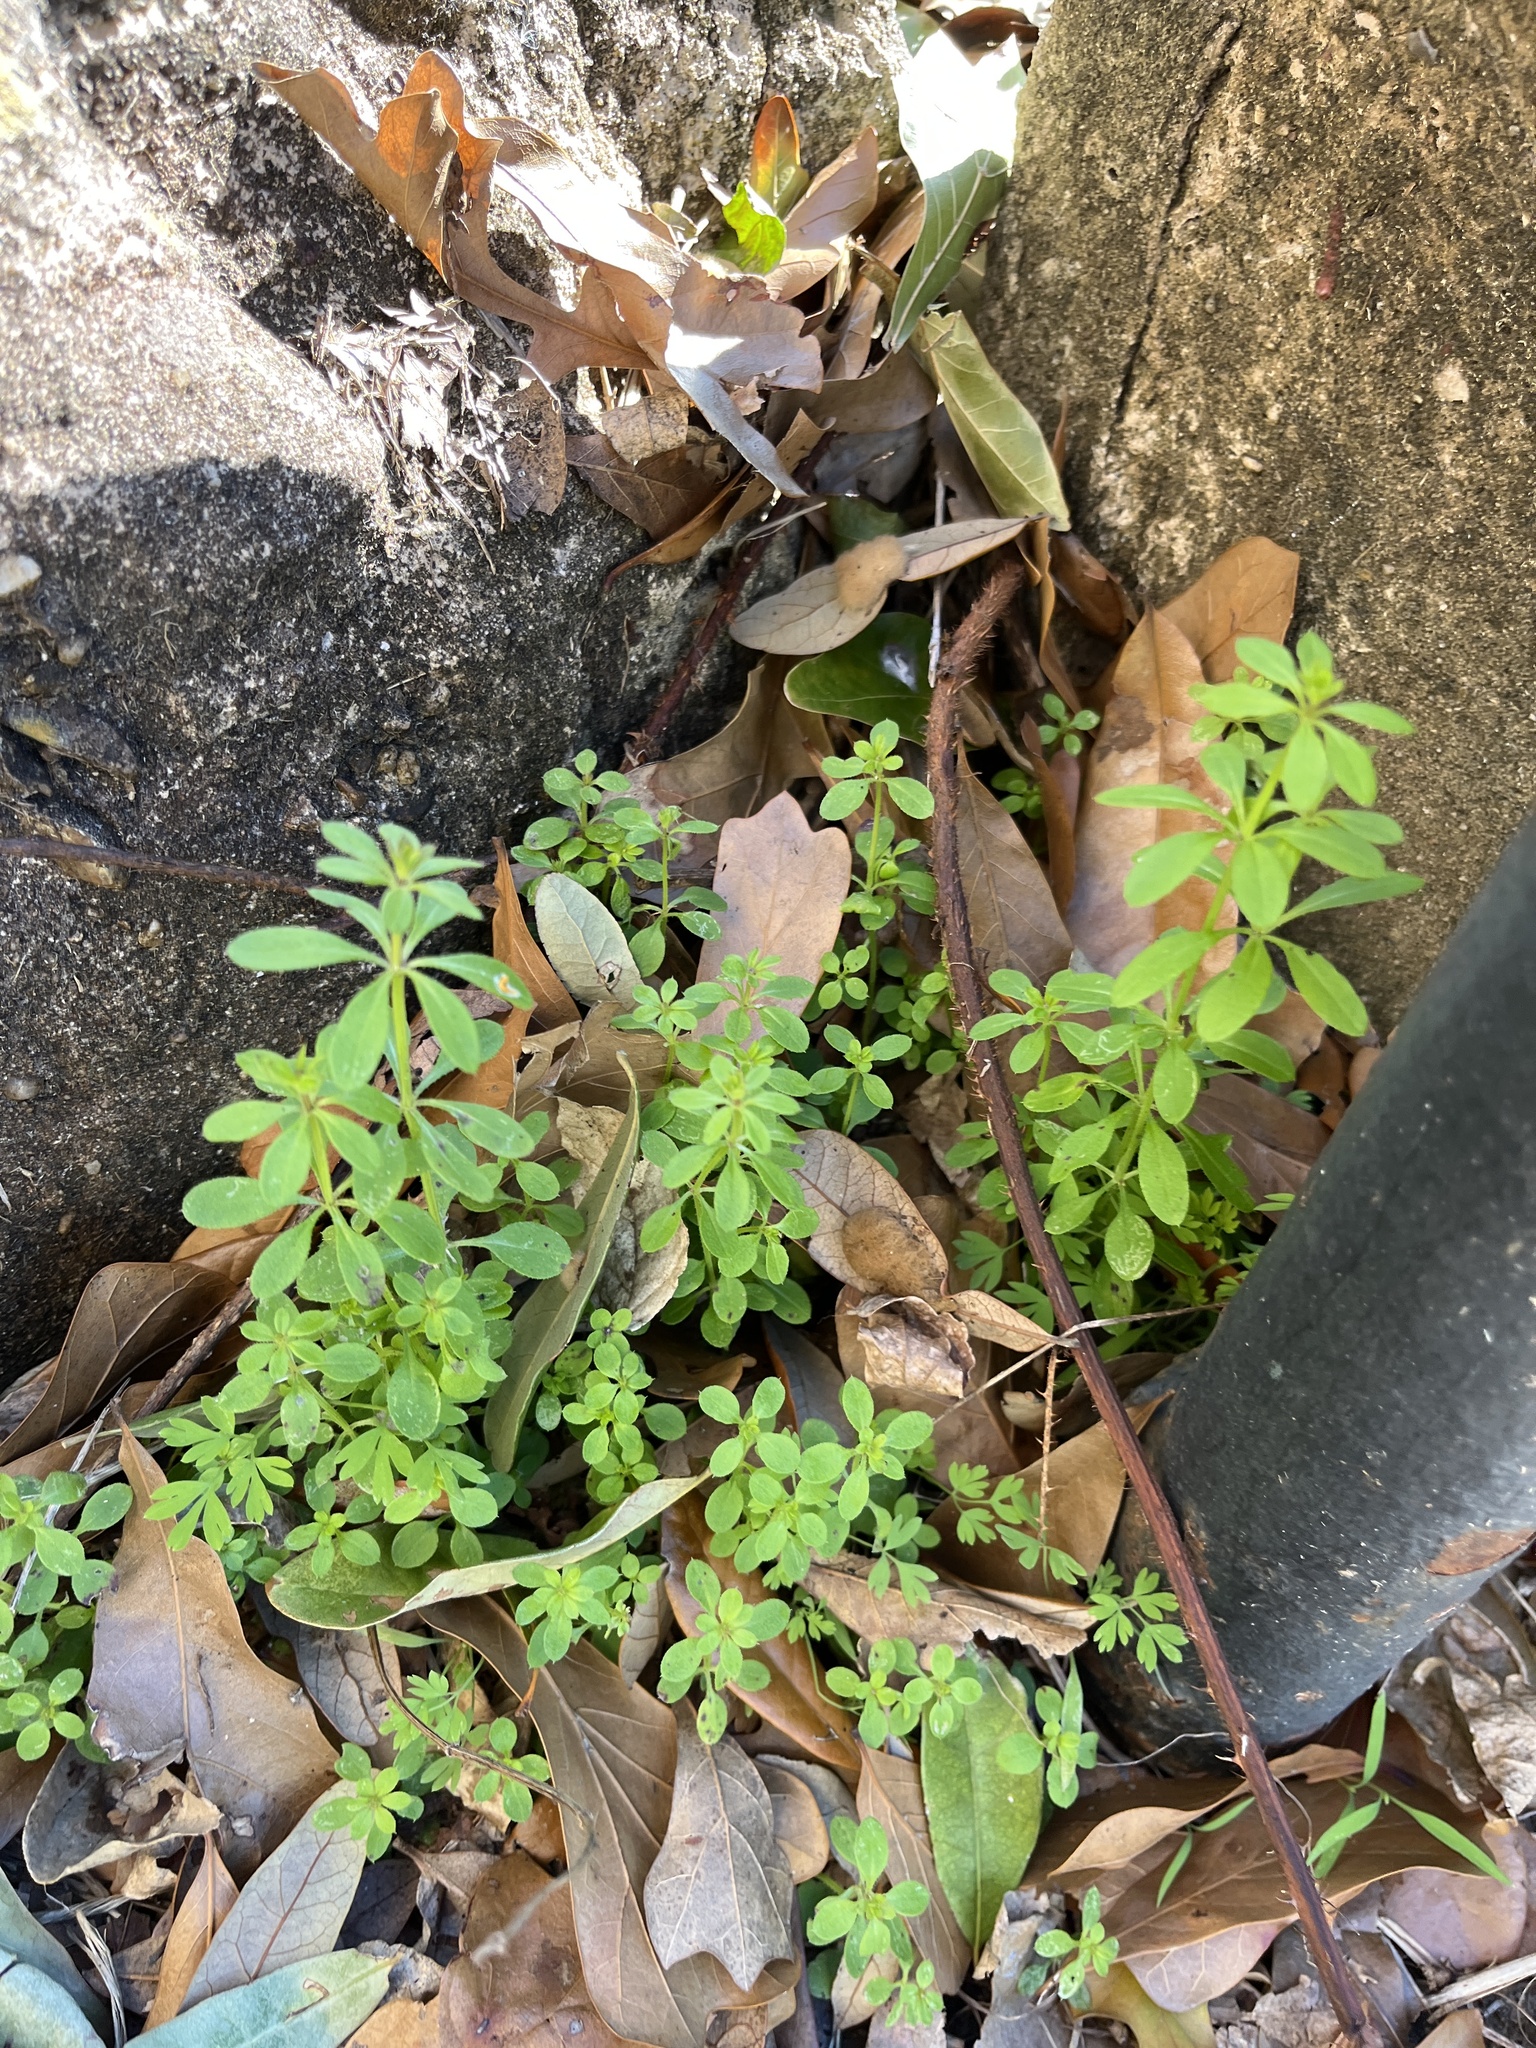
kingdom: Plantae
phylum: Tracheophyta
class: Magnoliopsida
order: Gentianales
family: Rubiaceae
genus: Galium
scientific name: Galium aparine
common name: Cleavers
